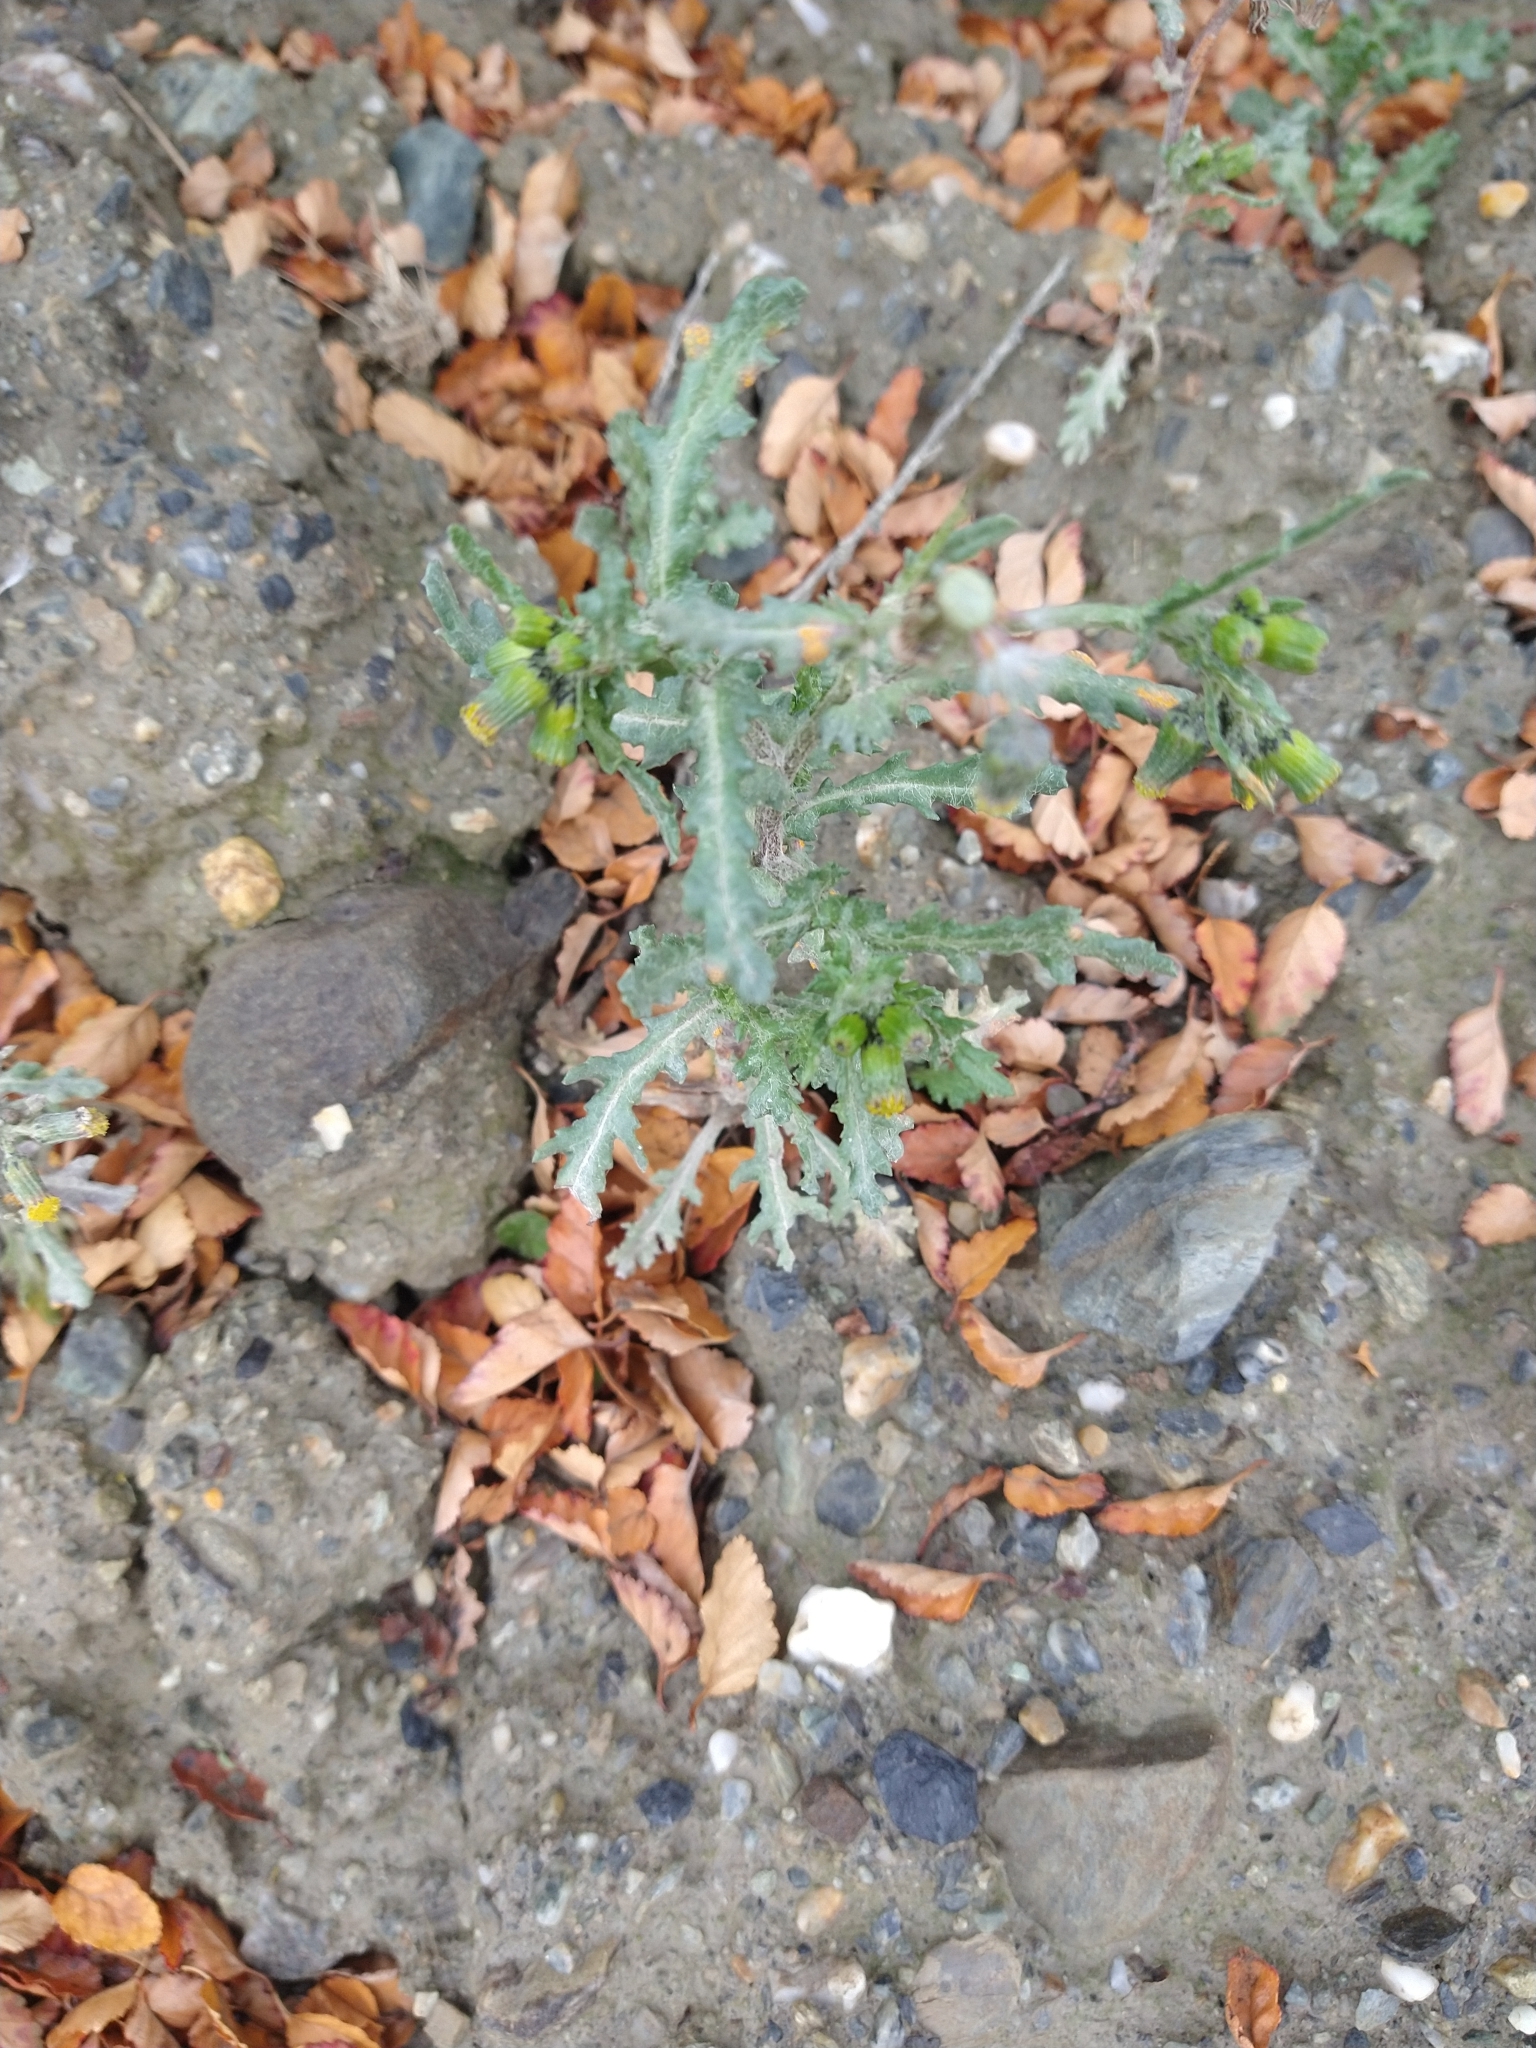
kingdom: Plantae
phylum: Tracheophyta
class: Magnoliopsida
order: Asterales
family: Asteraceae
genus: Senecio
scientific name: Senecio vulgaris
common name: Old-man-in-the-spring
